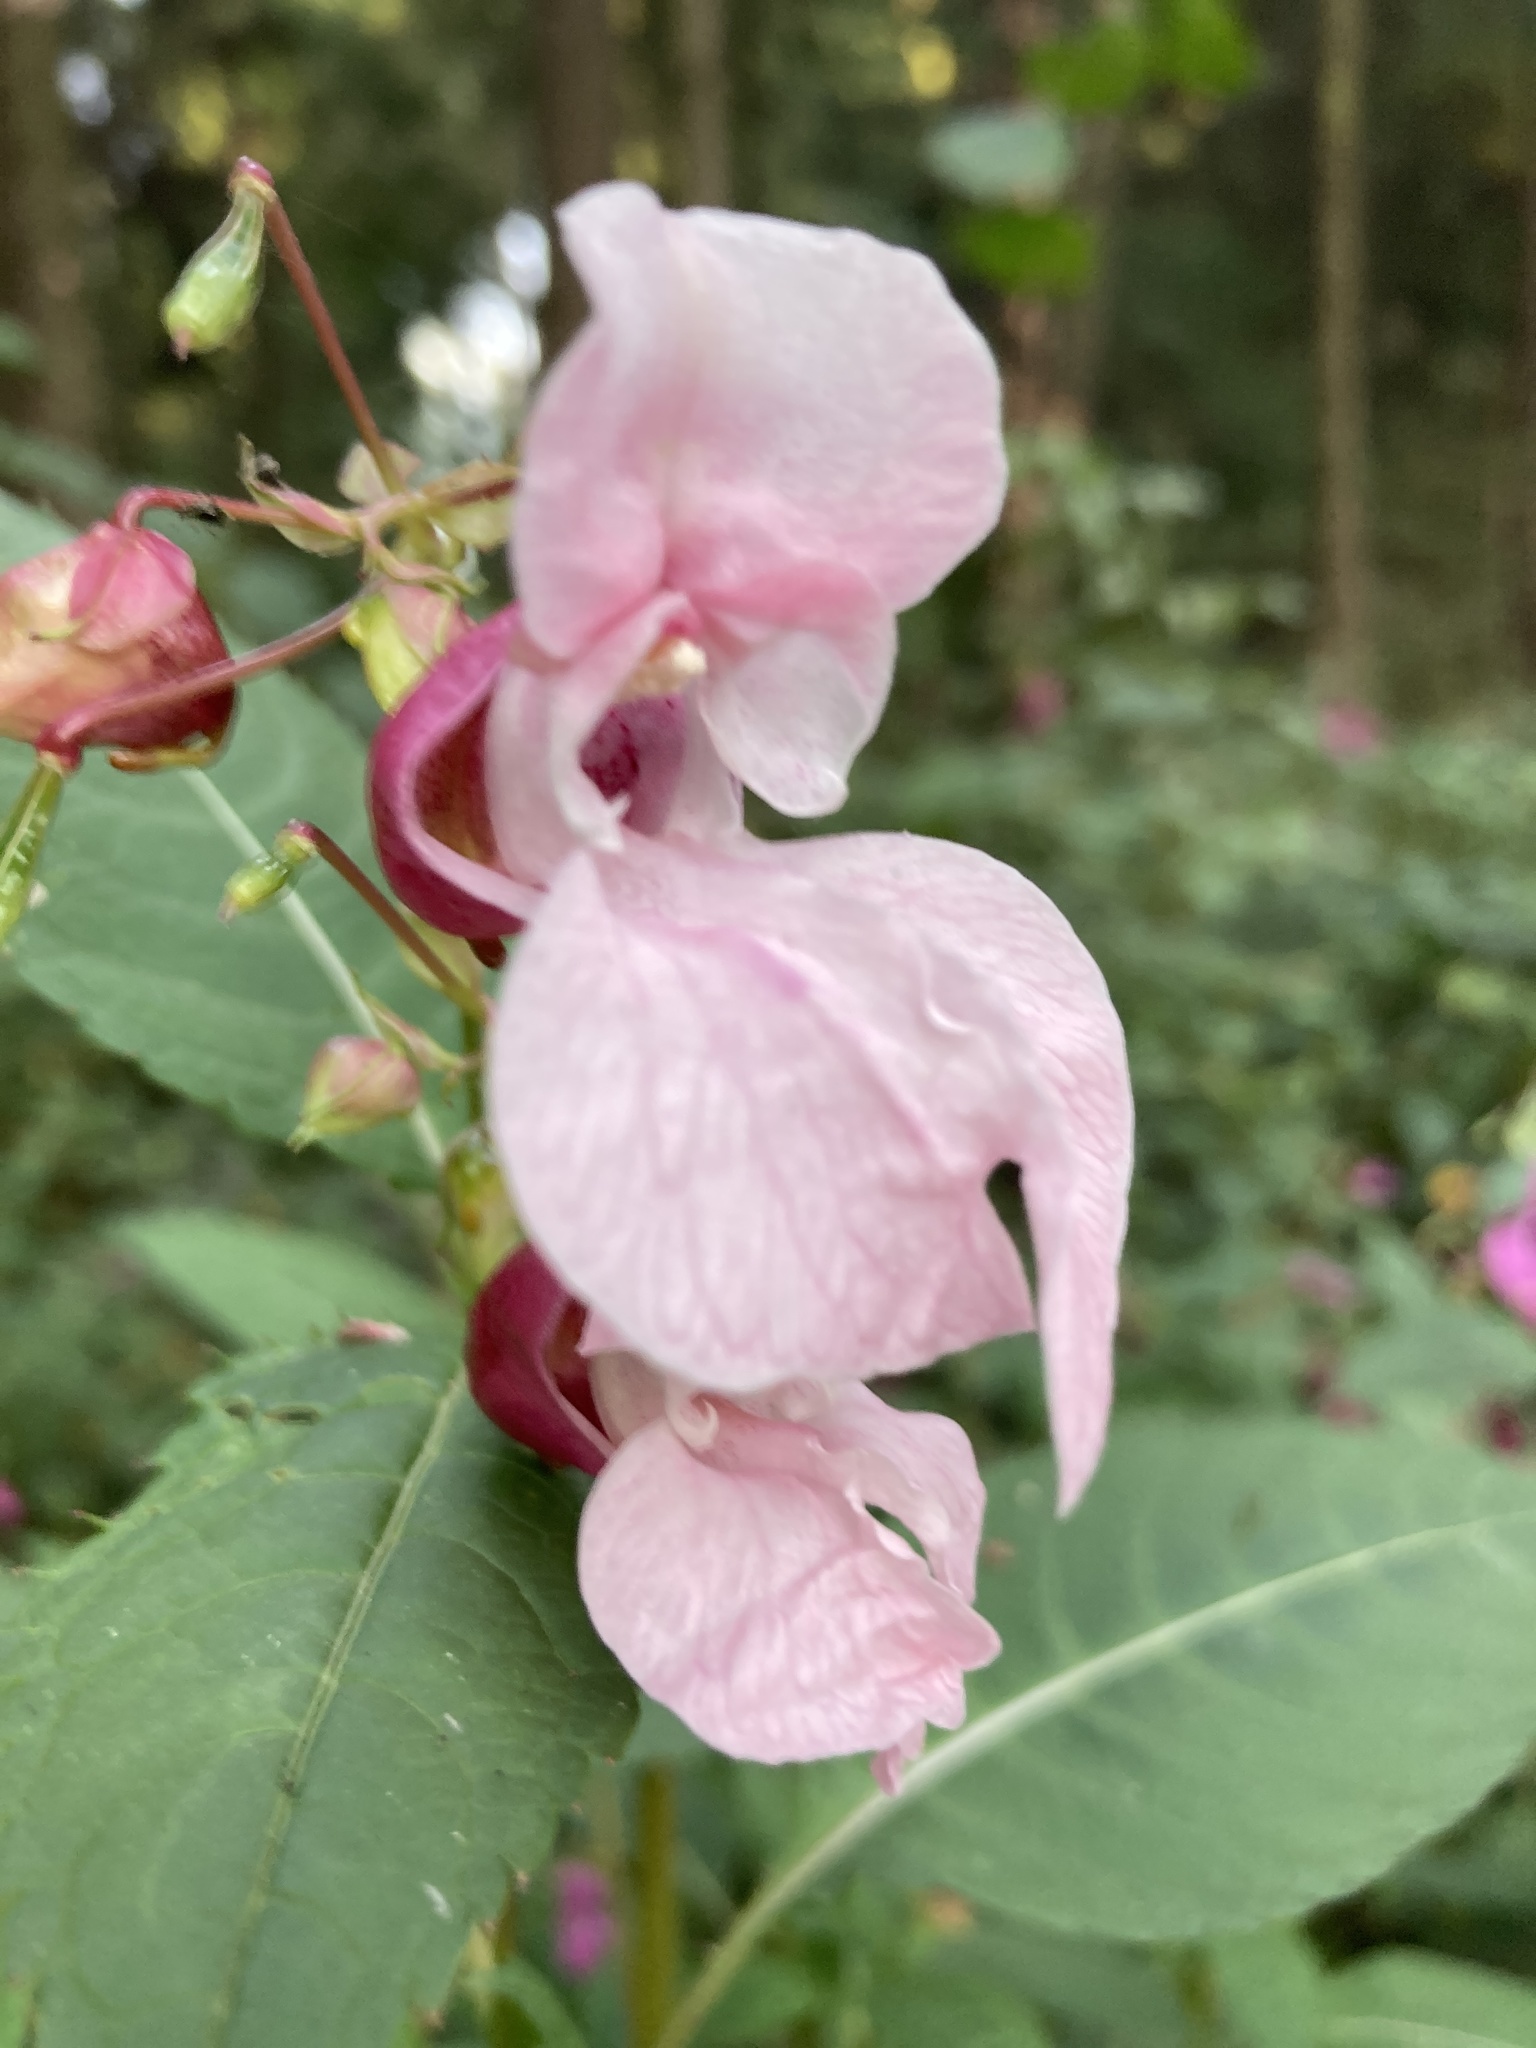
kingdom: Plantae
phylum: Tracheophyta
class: Magnoliopsida
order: Ericales
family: Balsaminaceae
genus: Impatiens
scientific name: Impatiens glandulifera
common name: Himalayan balsam
